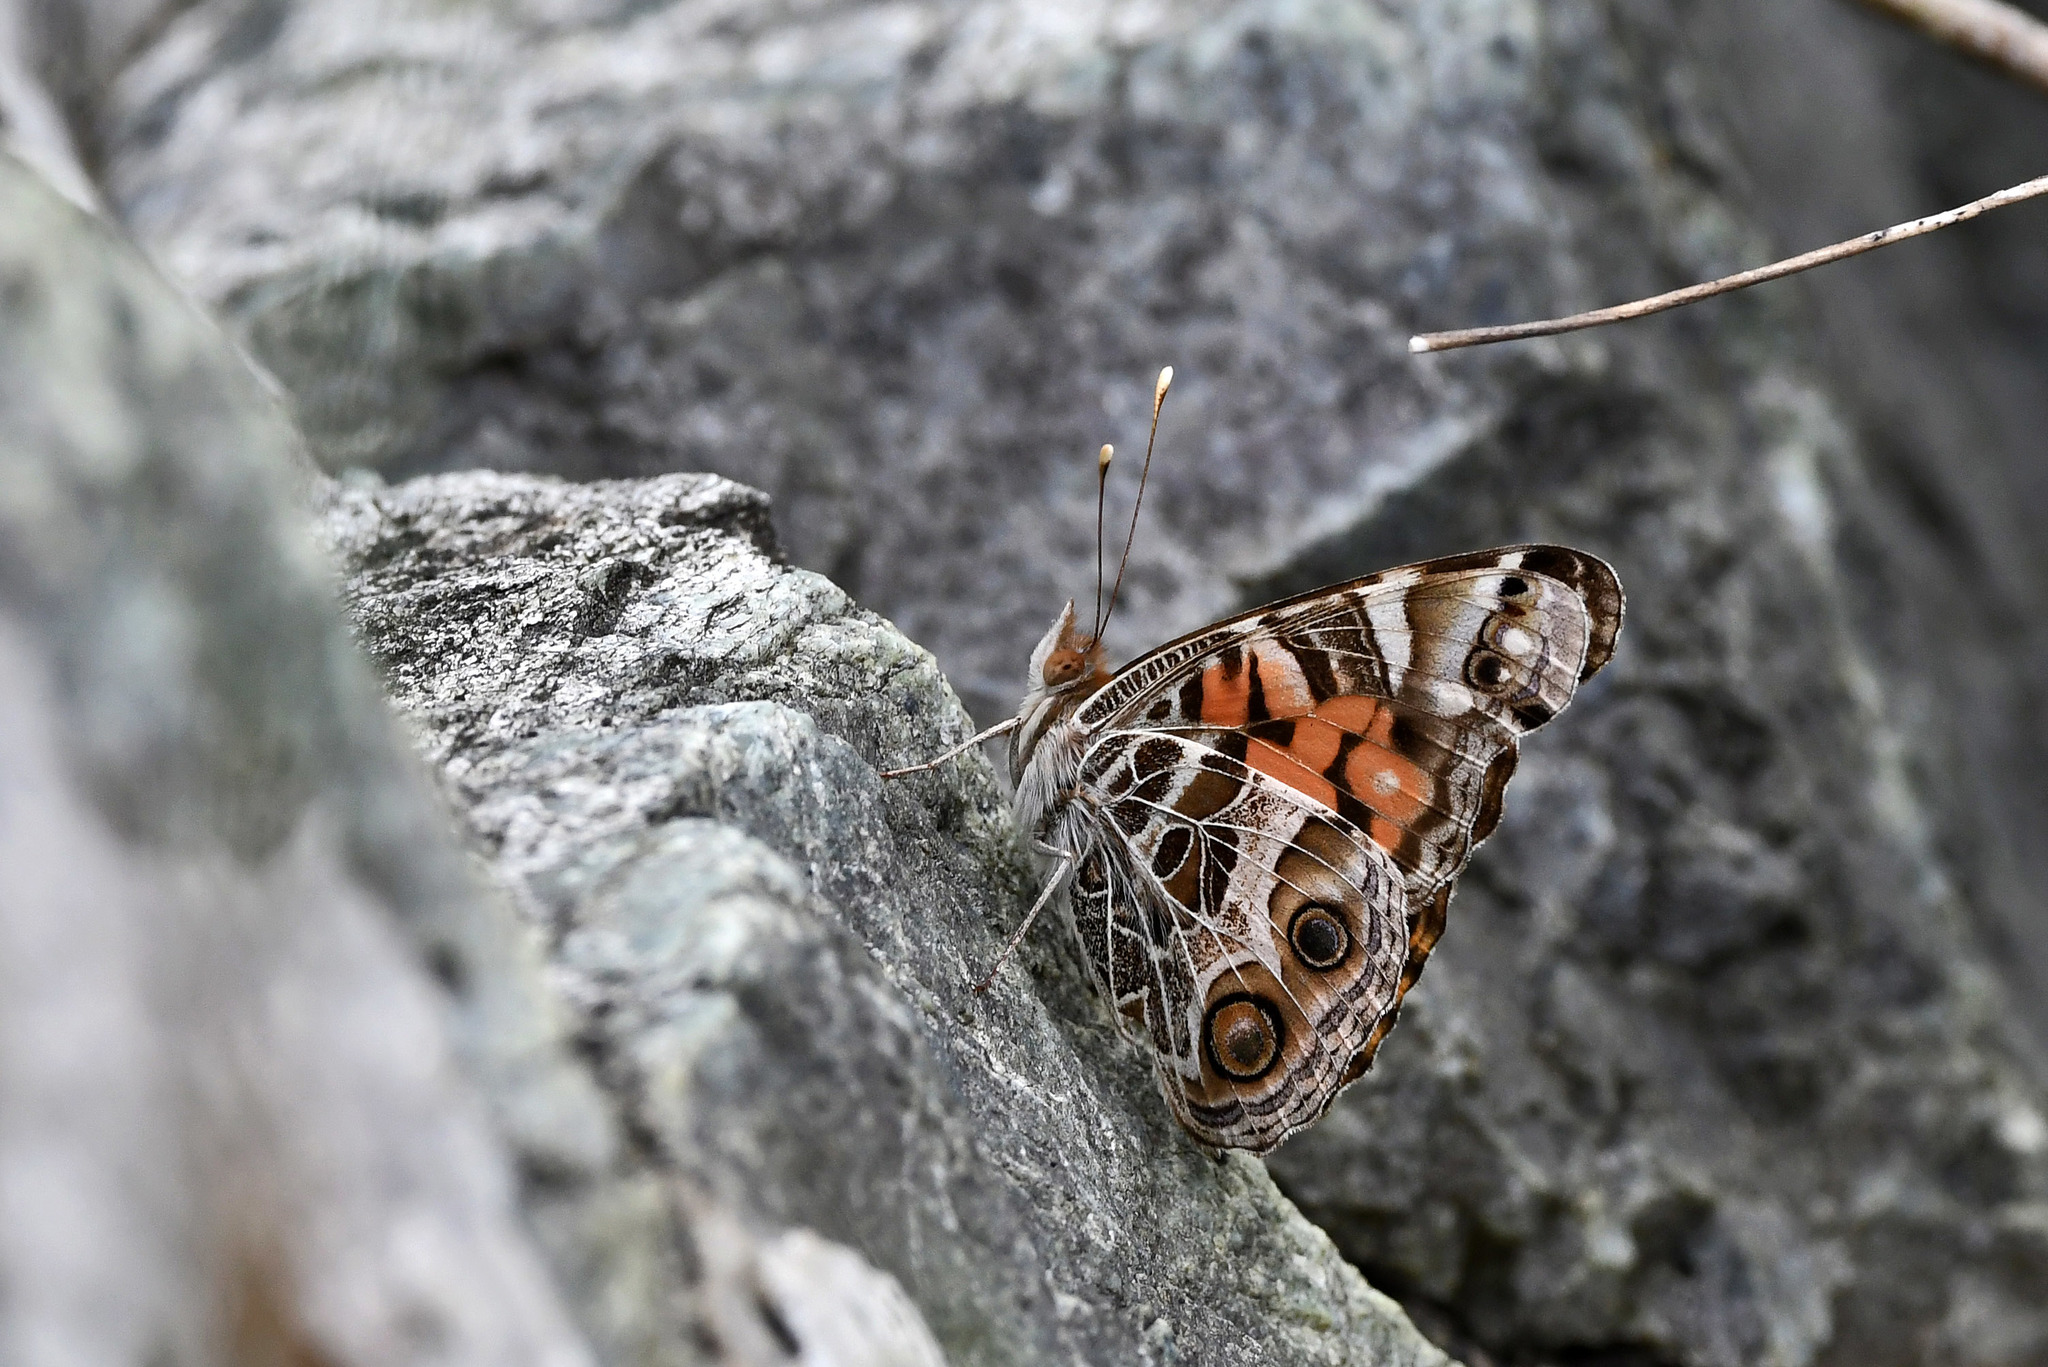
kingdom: Animalia
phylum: Arthropoda
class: Insecta
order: Lepidoptera
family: Nymphalidae
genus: Vanessa
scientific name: Vanessa virginiensis
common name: American lady
